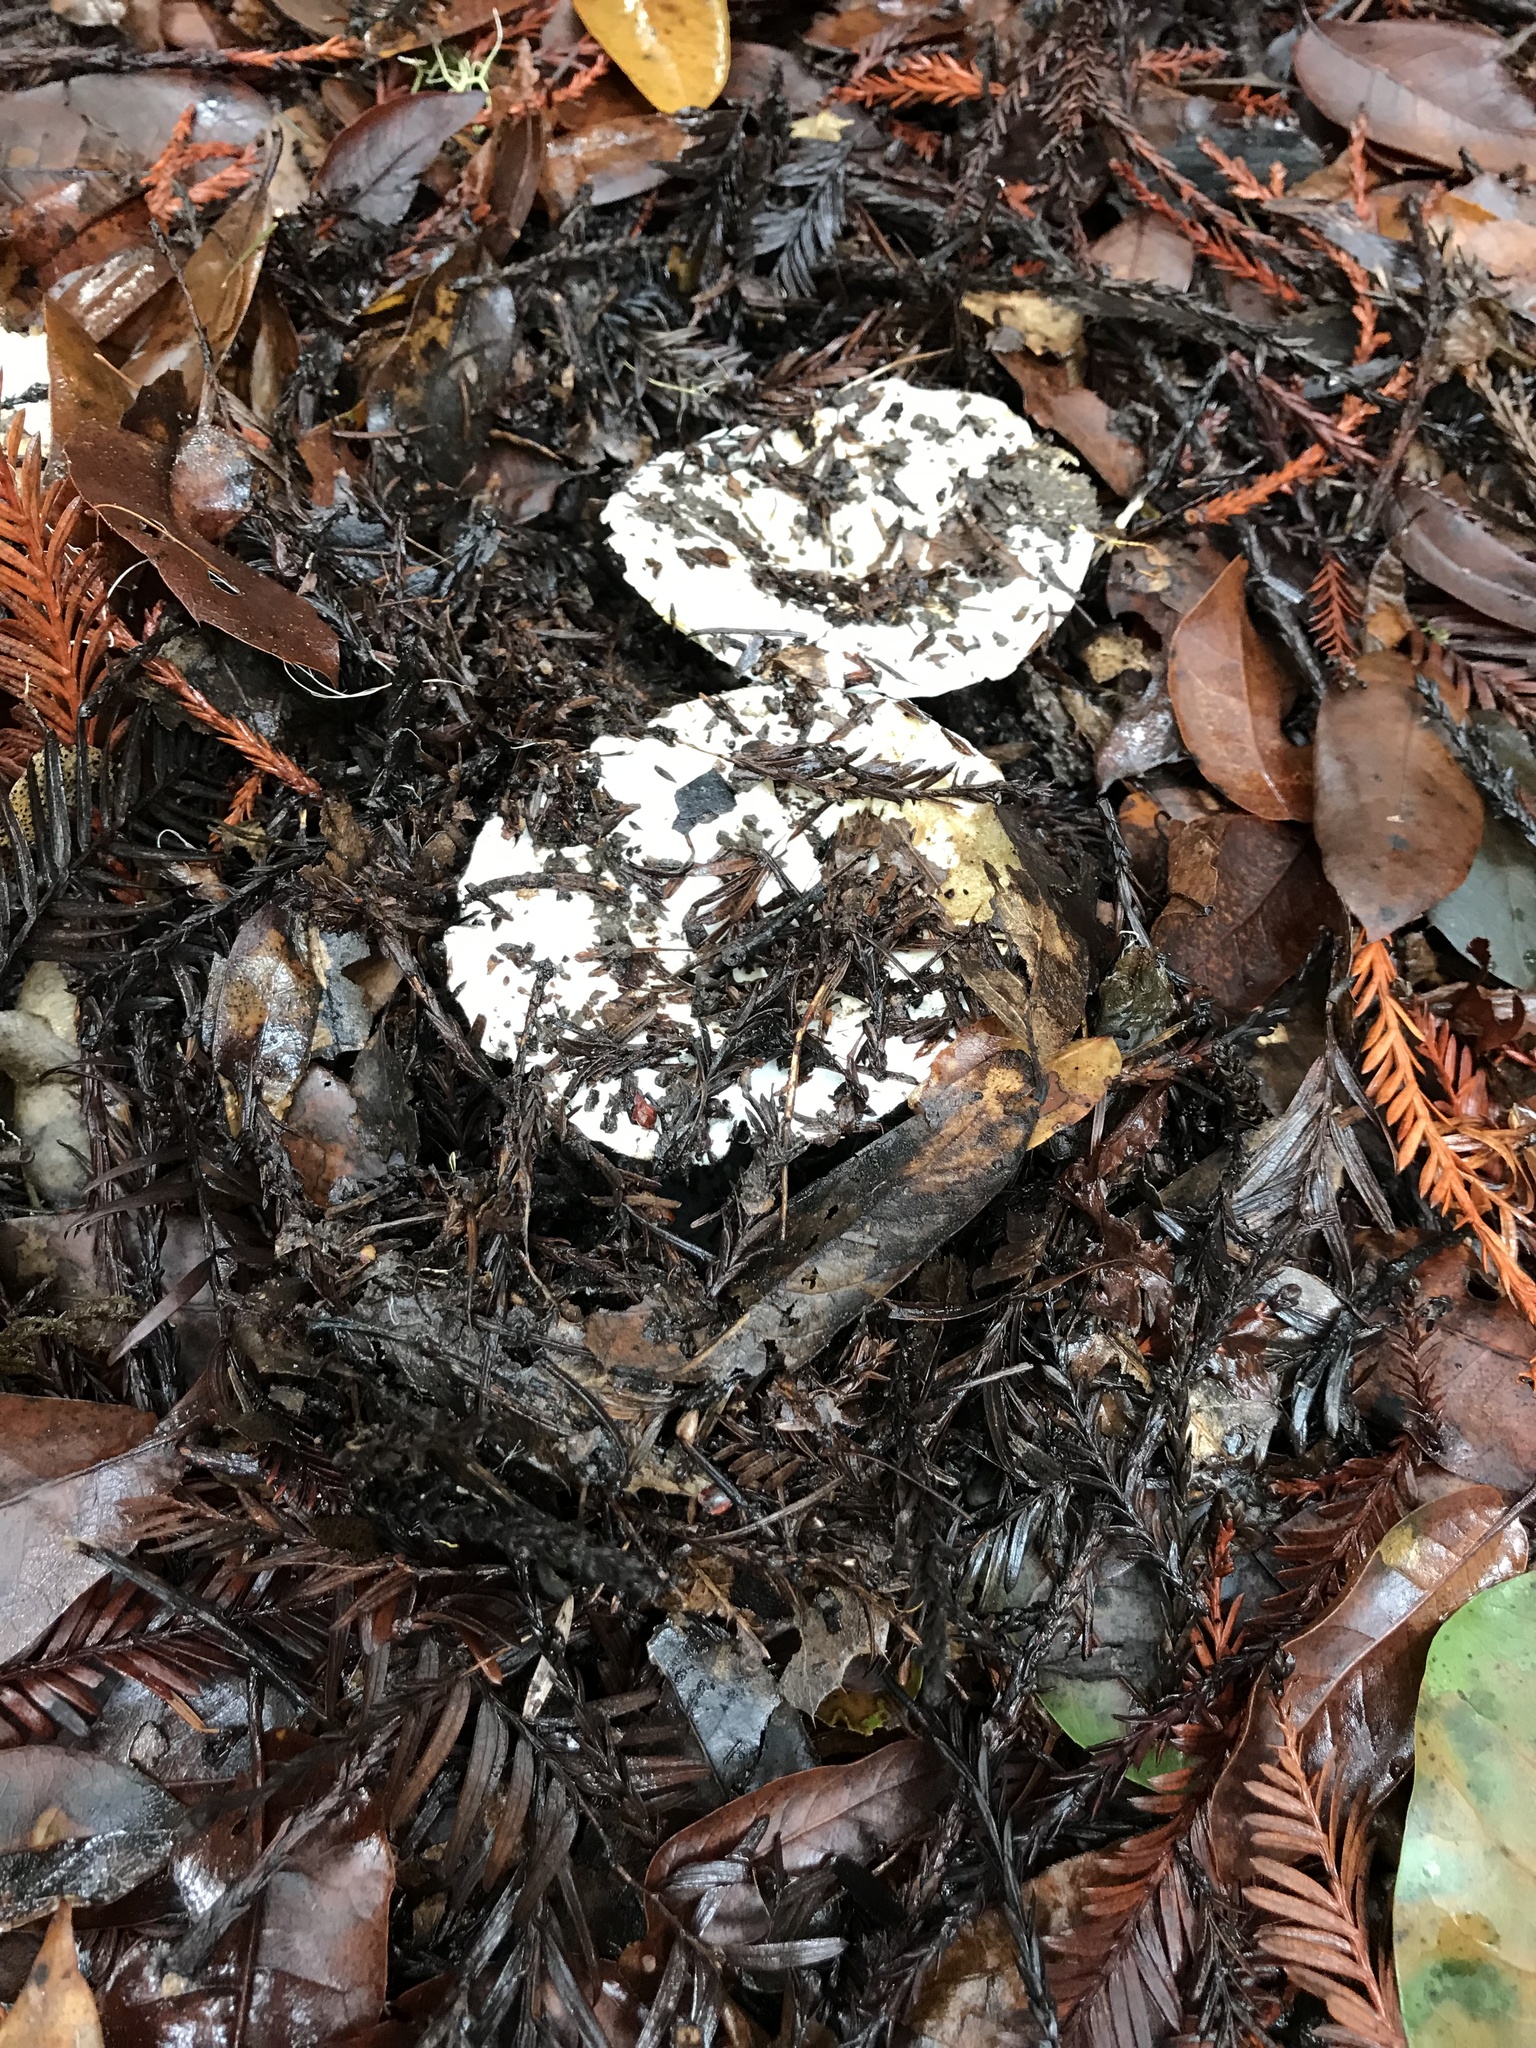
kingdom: Fungi
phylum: Basidiomycota
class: Agaricomycetes
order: Russulales
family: Russulaceae
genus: Russula
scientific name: Russula brevipes
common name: Short-stemmed russula
